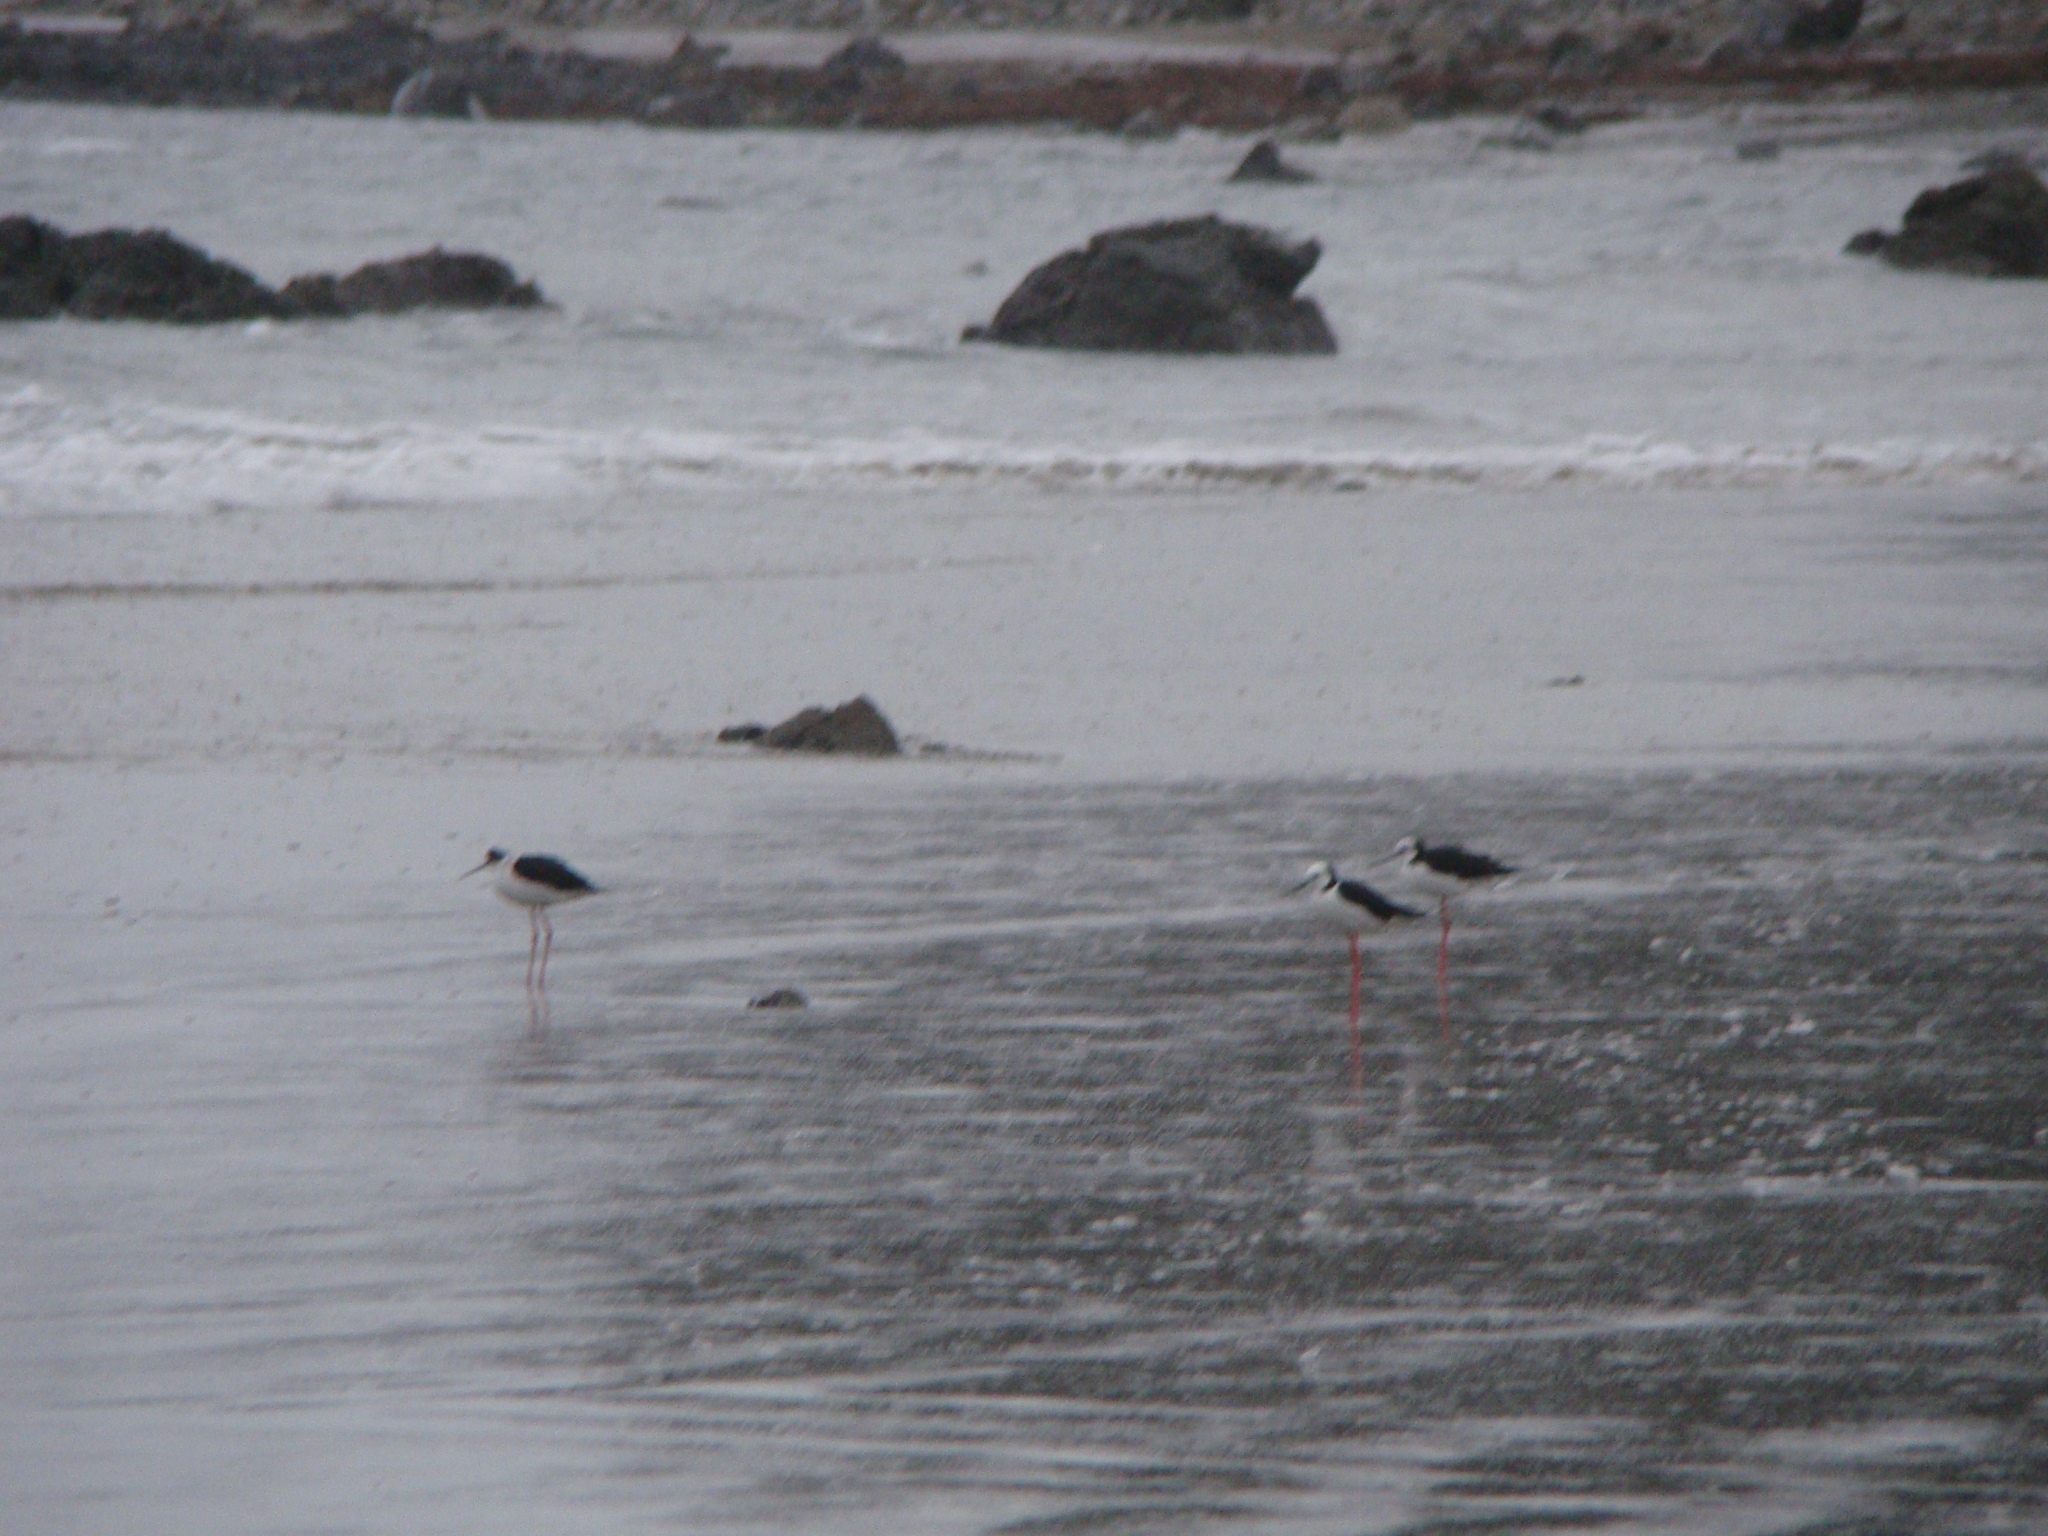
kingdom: Animalia
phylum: Chordata
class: Aves
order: Charadriiformes
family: Recurvirostridae
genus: Himantopus
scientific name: Himantopus leucocephalus
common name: White-headed stilt
